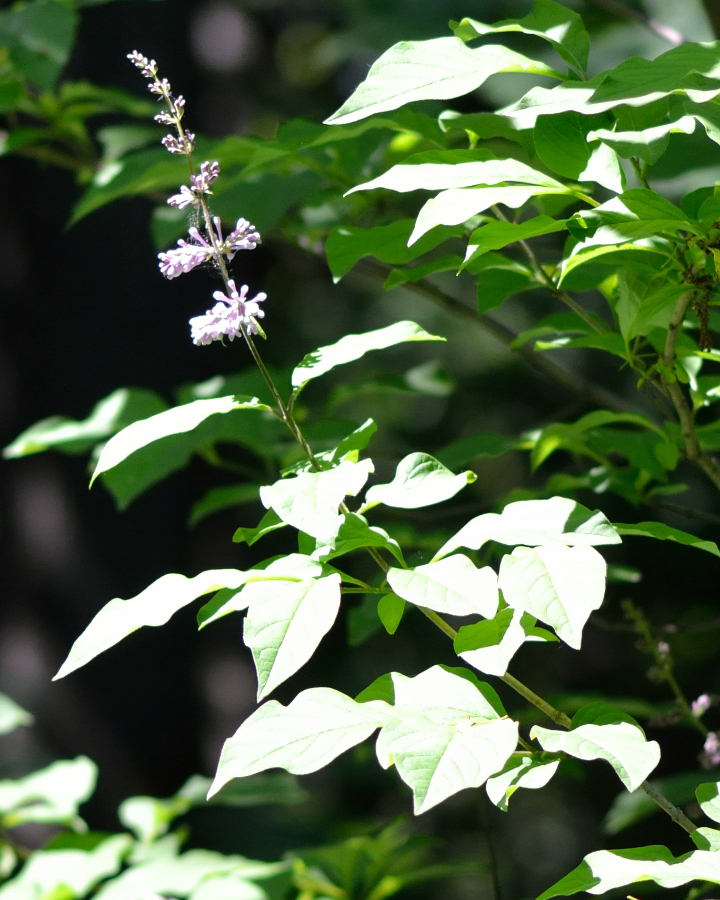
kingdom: Plantae
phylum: Tracheophyta
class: Magnoliopsida
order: Lamiales
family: Oleaceae
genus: Syringa
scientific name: Syringa josikaea
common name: Hungarian lilac
